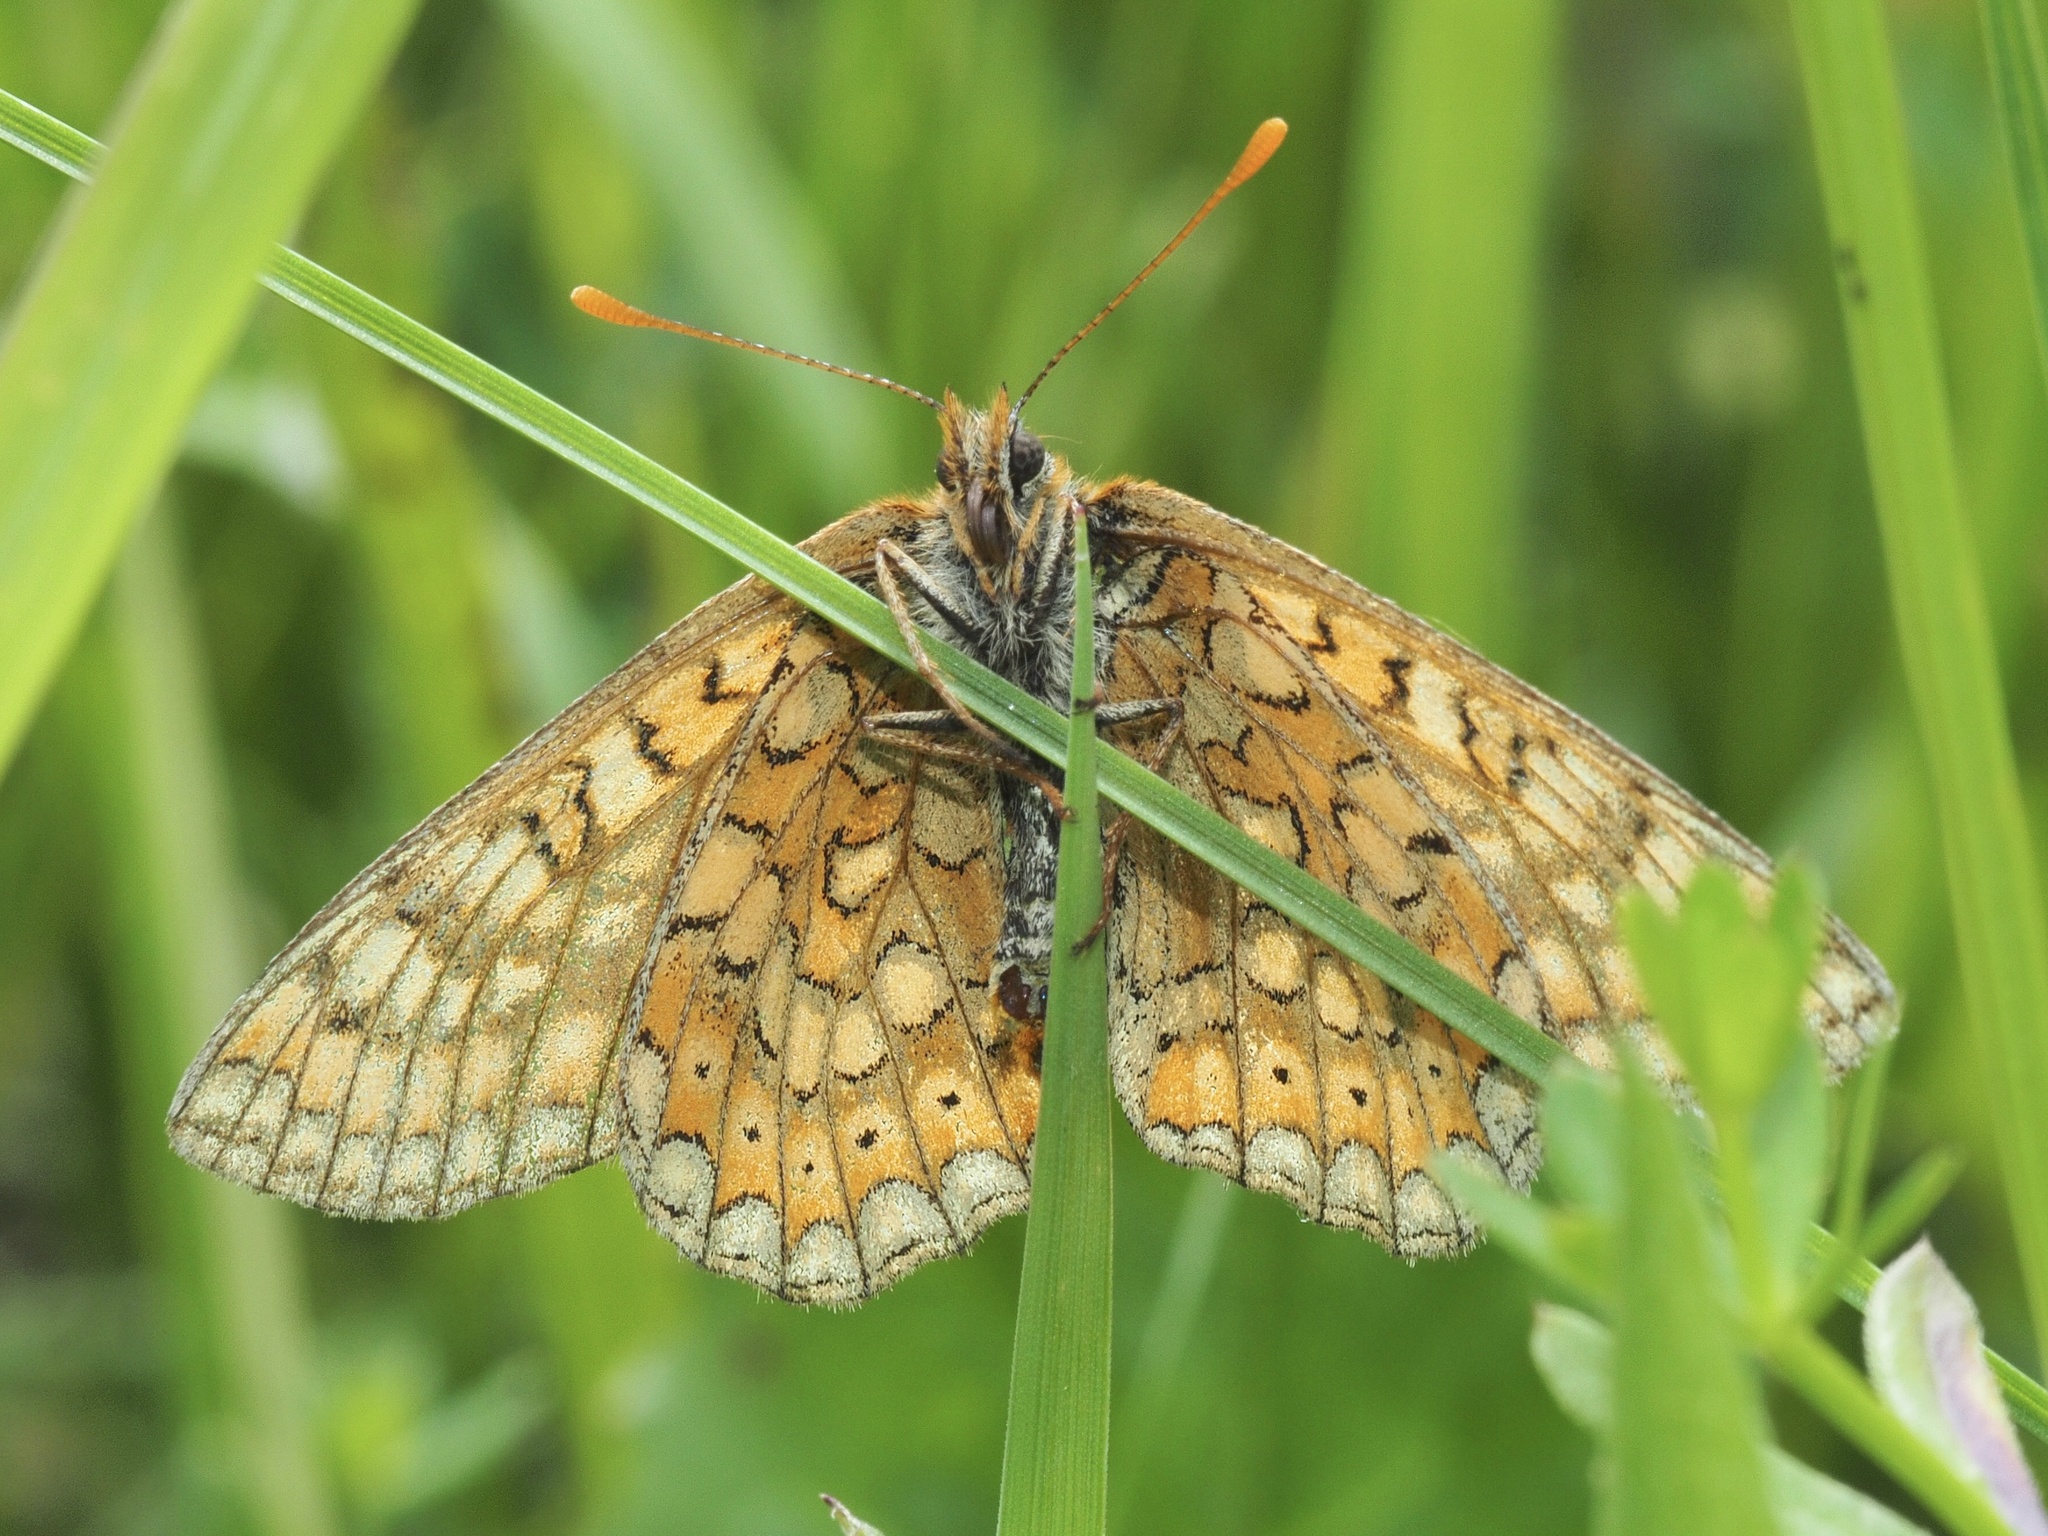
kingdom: Animalia
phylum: Arthropoda
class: Insecta
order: Lepidoptera
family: Nymphalidae
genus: Euphydryas
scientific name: Euphydryas aurinia
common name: Marsh fritillary
